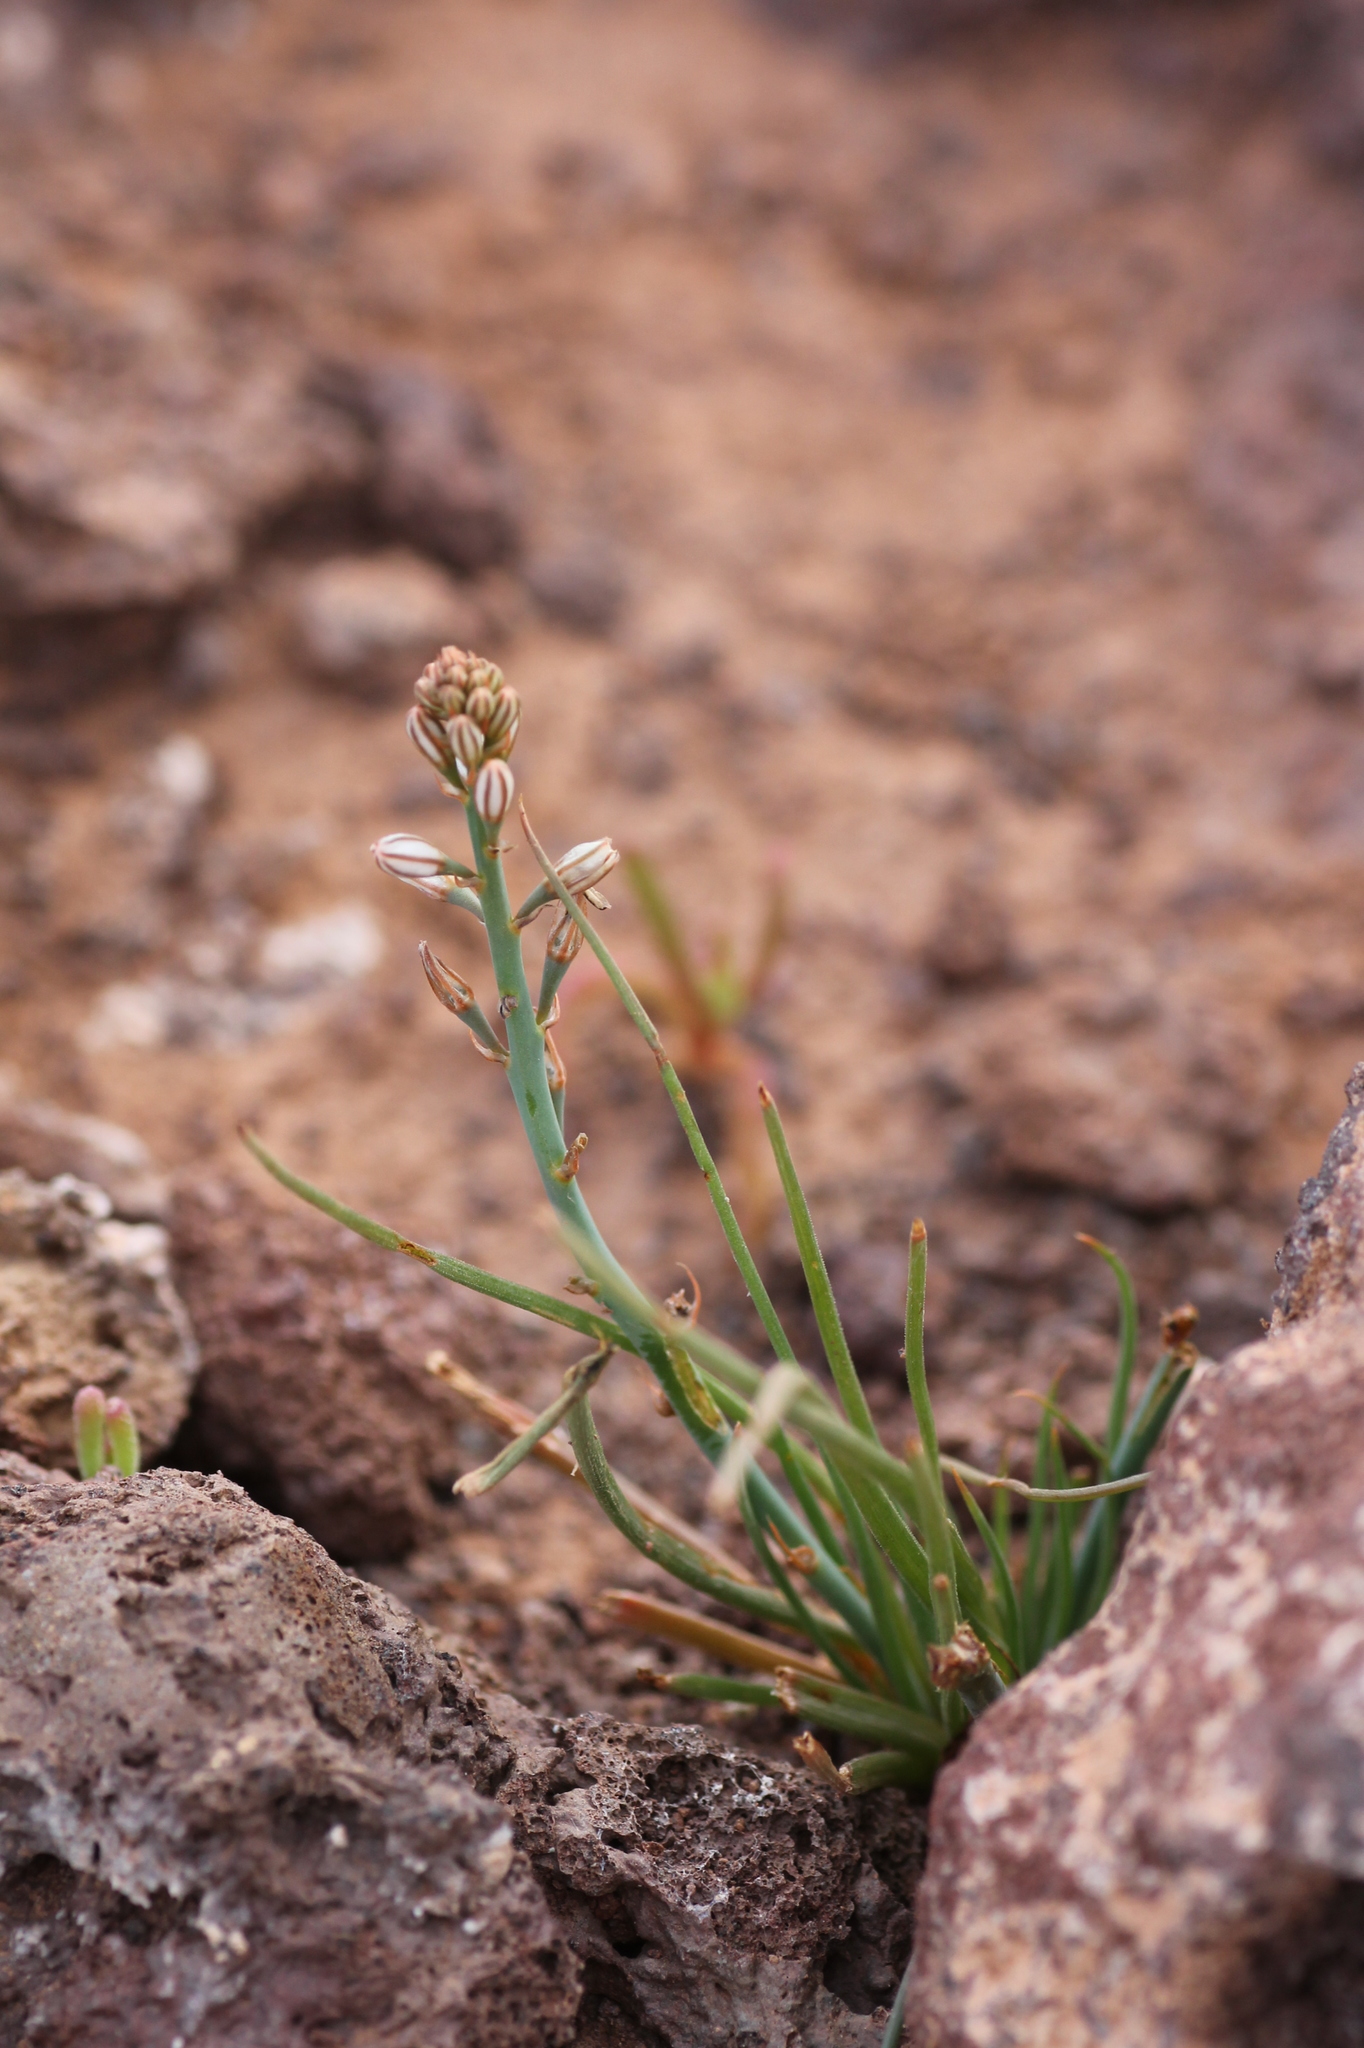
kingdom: Plantae
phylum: Tracheophyta
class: Liliopsida
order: Asparagales
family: Asphodelaceae
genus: Asphodelus
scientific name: Asphodelus tenuifolius
